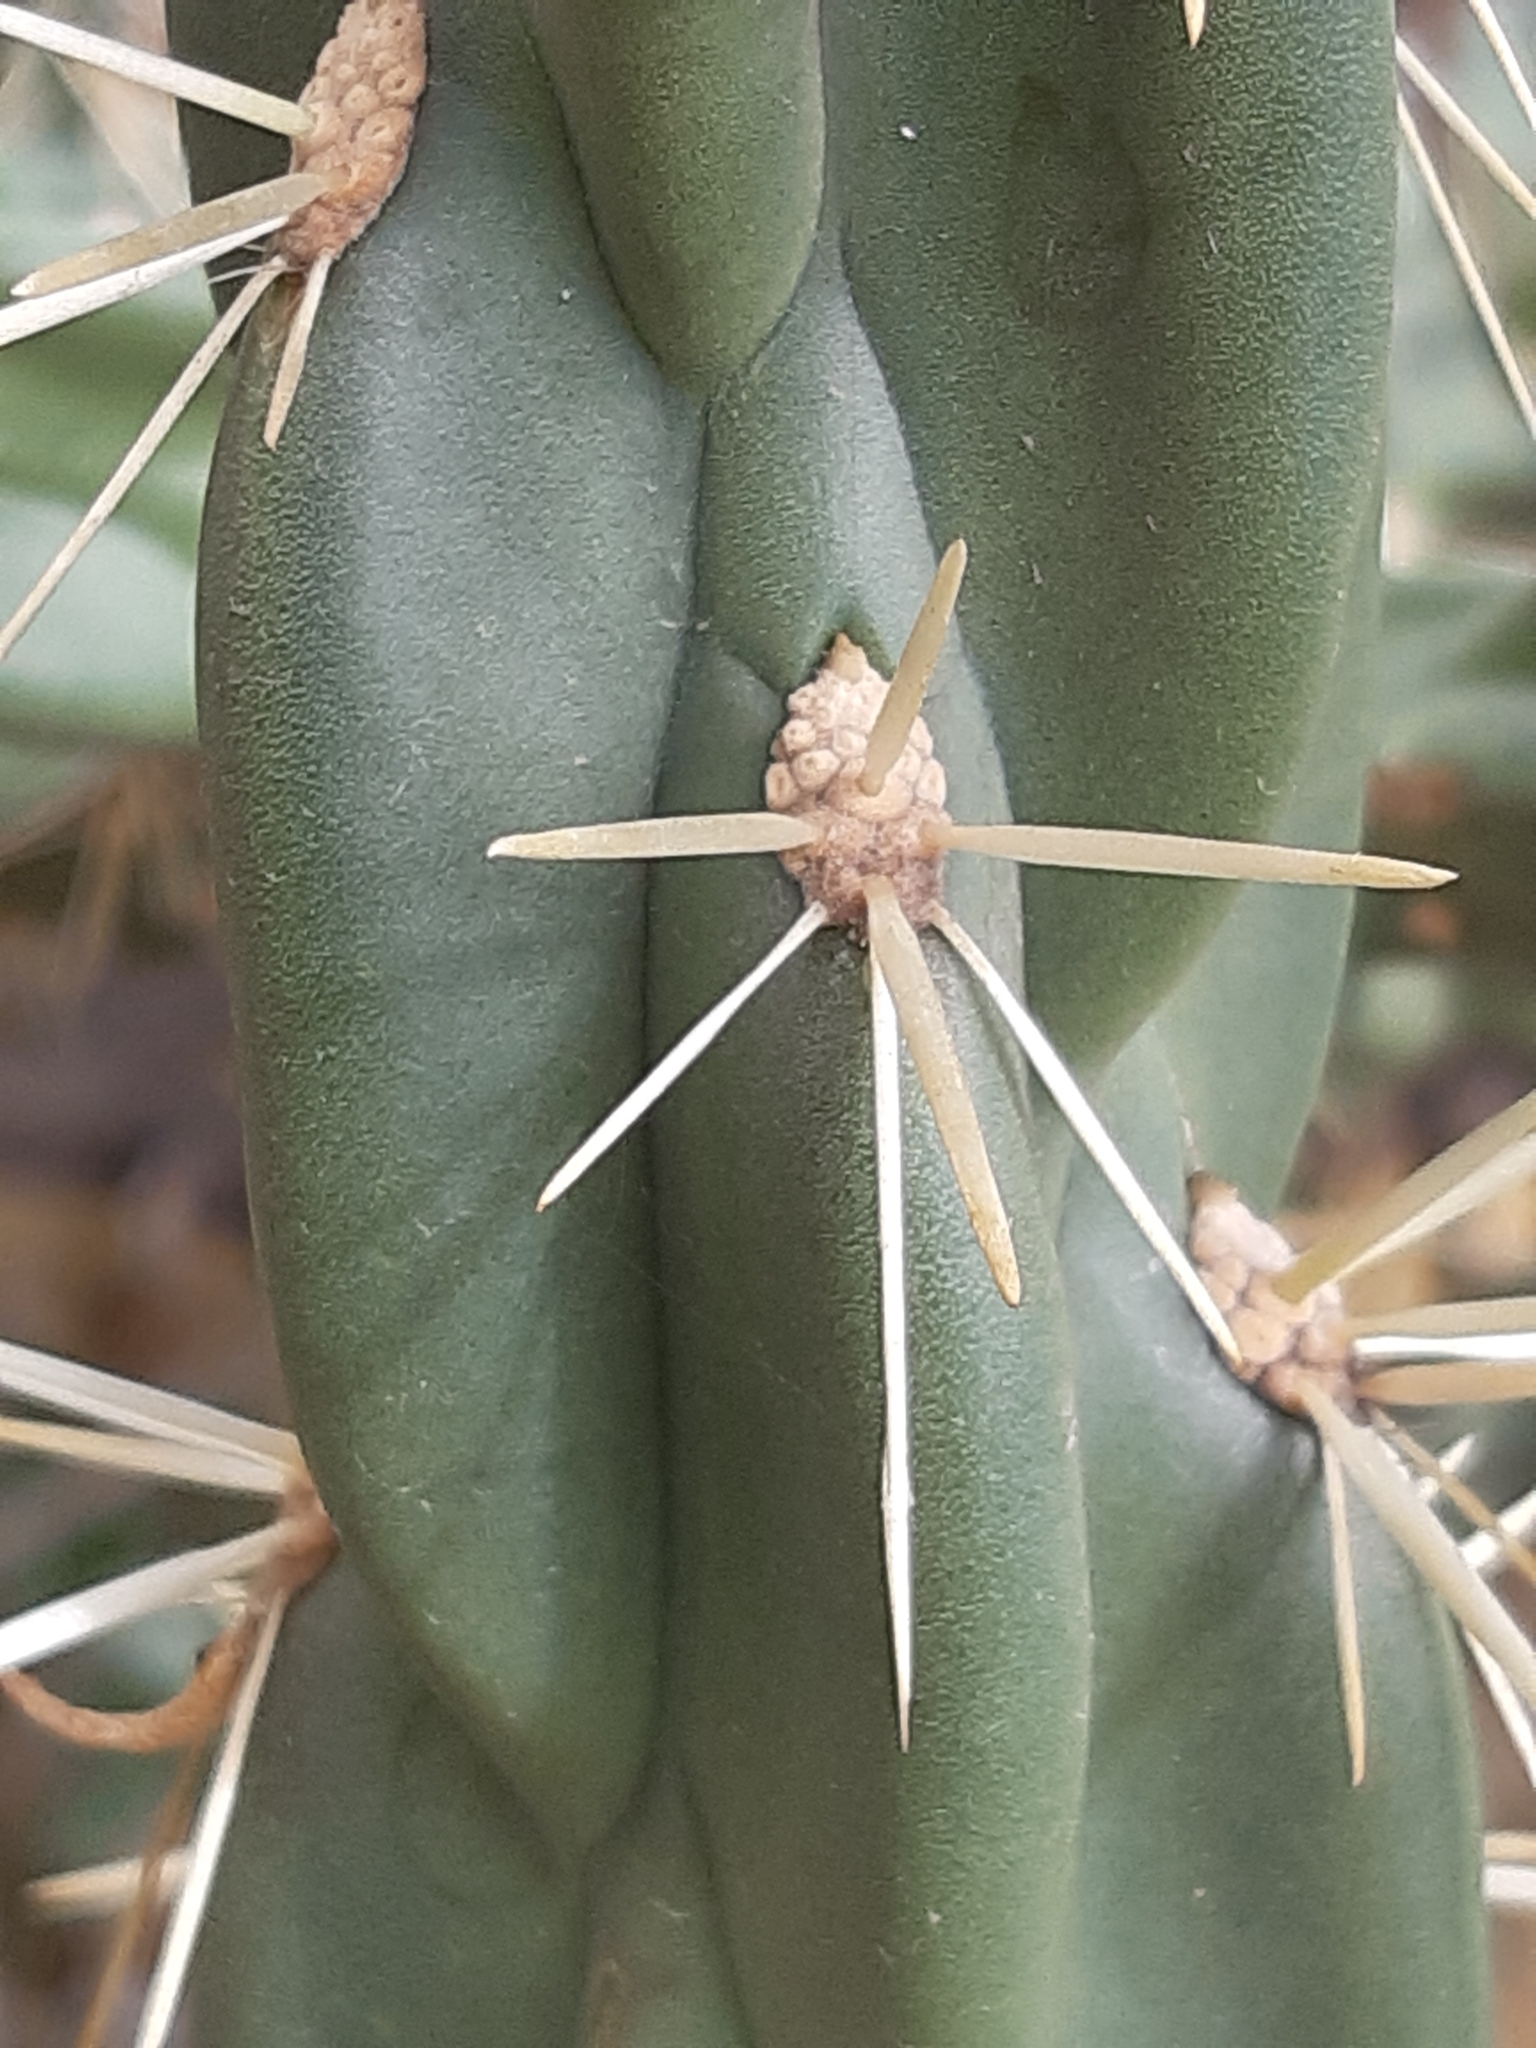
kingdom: Plantae
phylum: Tracheophyta
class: Magnoliopsida
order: Caryophyllales
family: Cactaceae
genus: Cylindropuntia
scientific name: Cylindropuntia imbricata
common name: Candelabrum cactus
